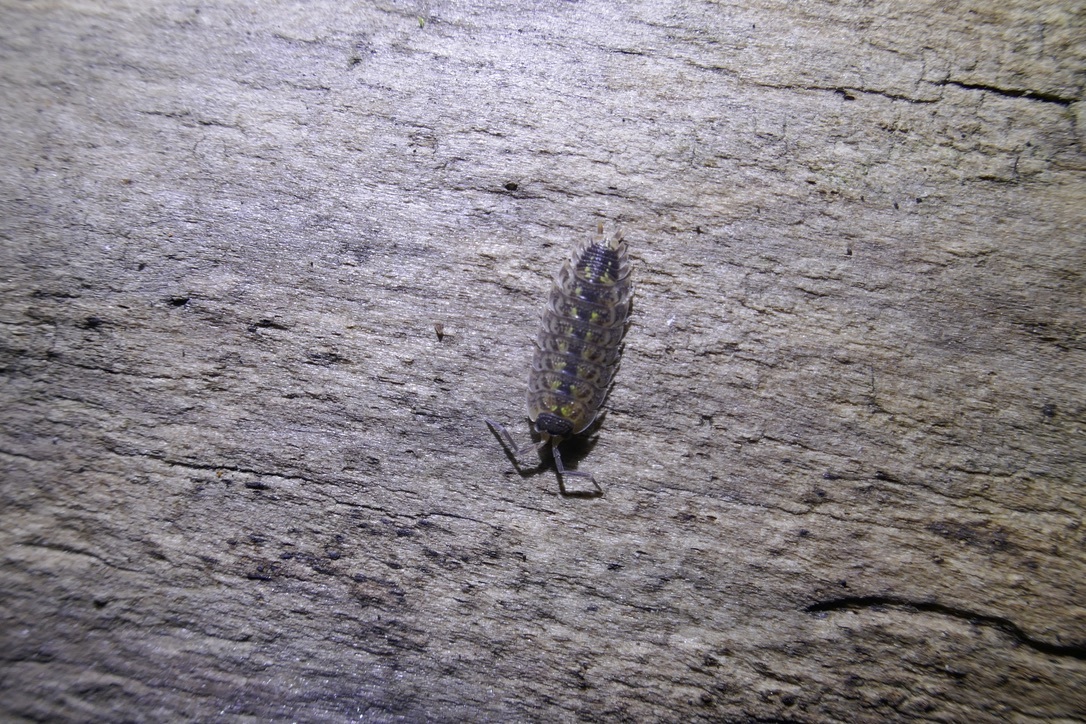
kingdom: Animalia
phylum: Arthropoda
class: Malacostraca
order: Isopoda
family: Porcellionidae
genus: Porcellio
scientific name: Porcellio spinicornis
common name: Painted woodlouse
